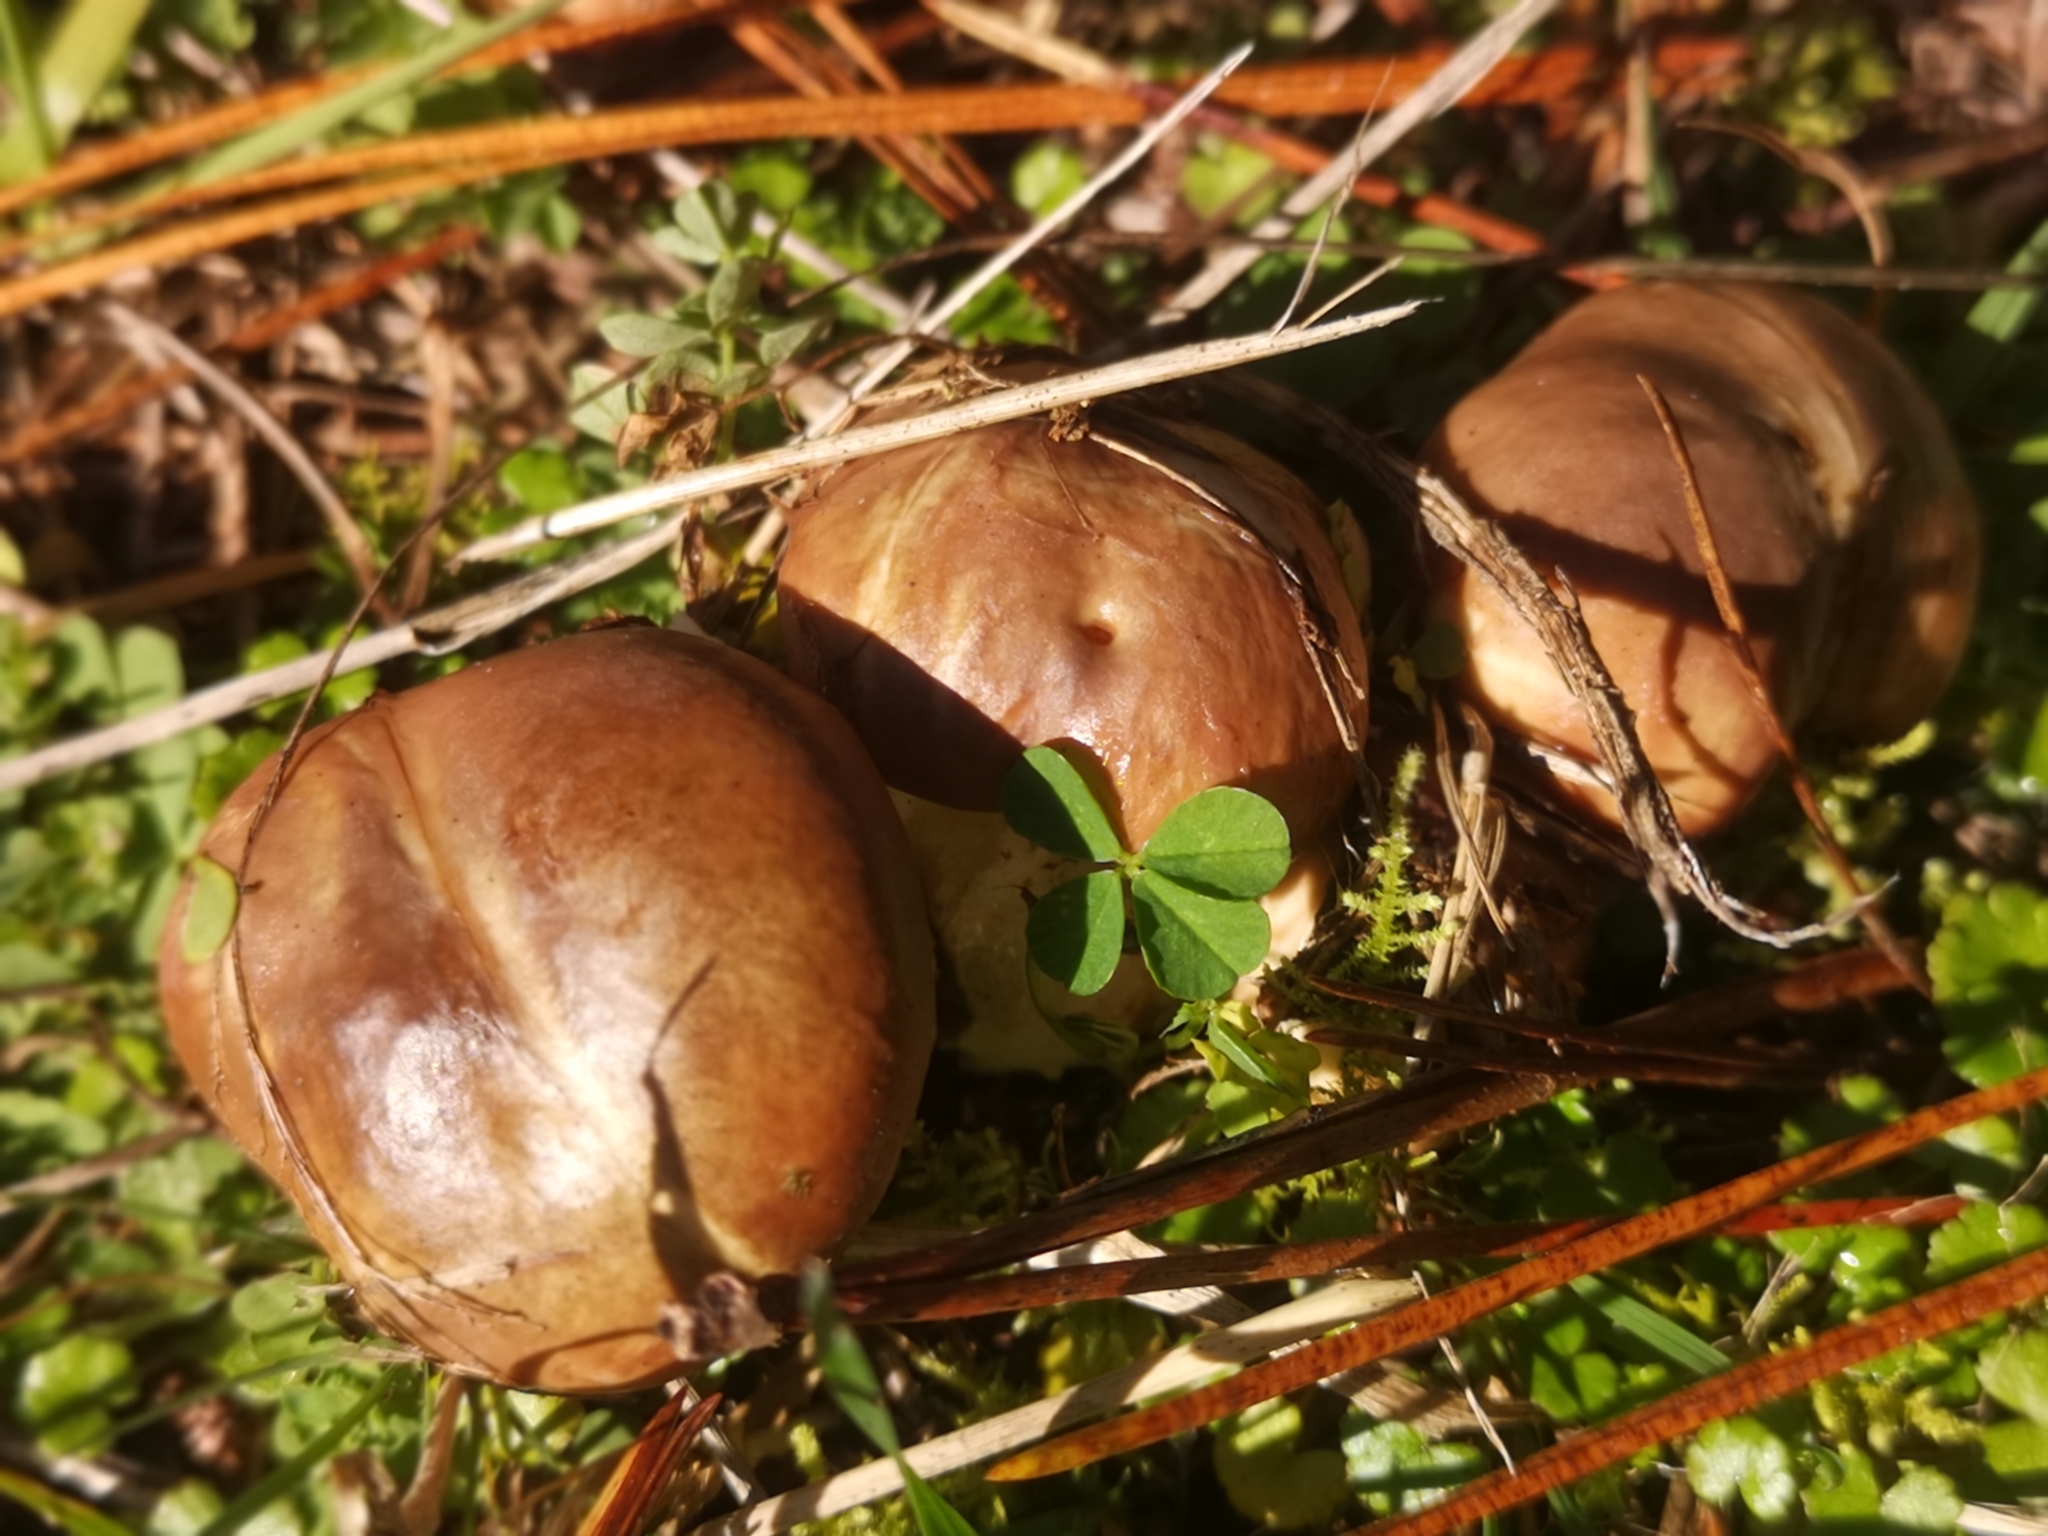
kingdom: Fungi
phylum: Basidiomycota
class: Agaricomycetes
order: Boletales
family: Suillaceae
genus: Suillus
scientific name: Suillus luteus
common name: Slippery jack
